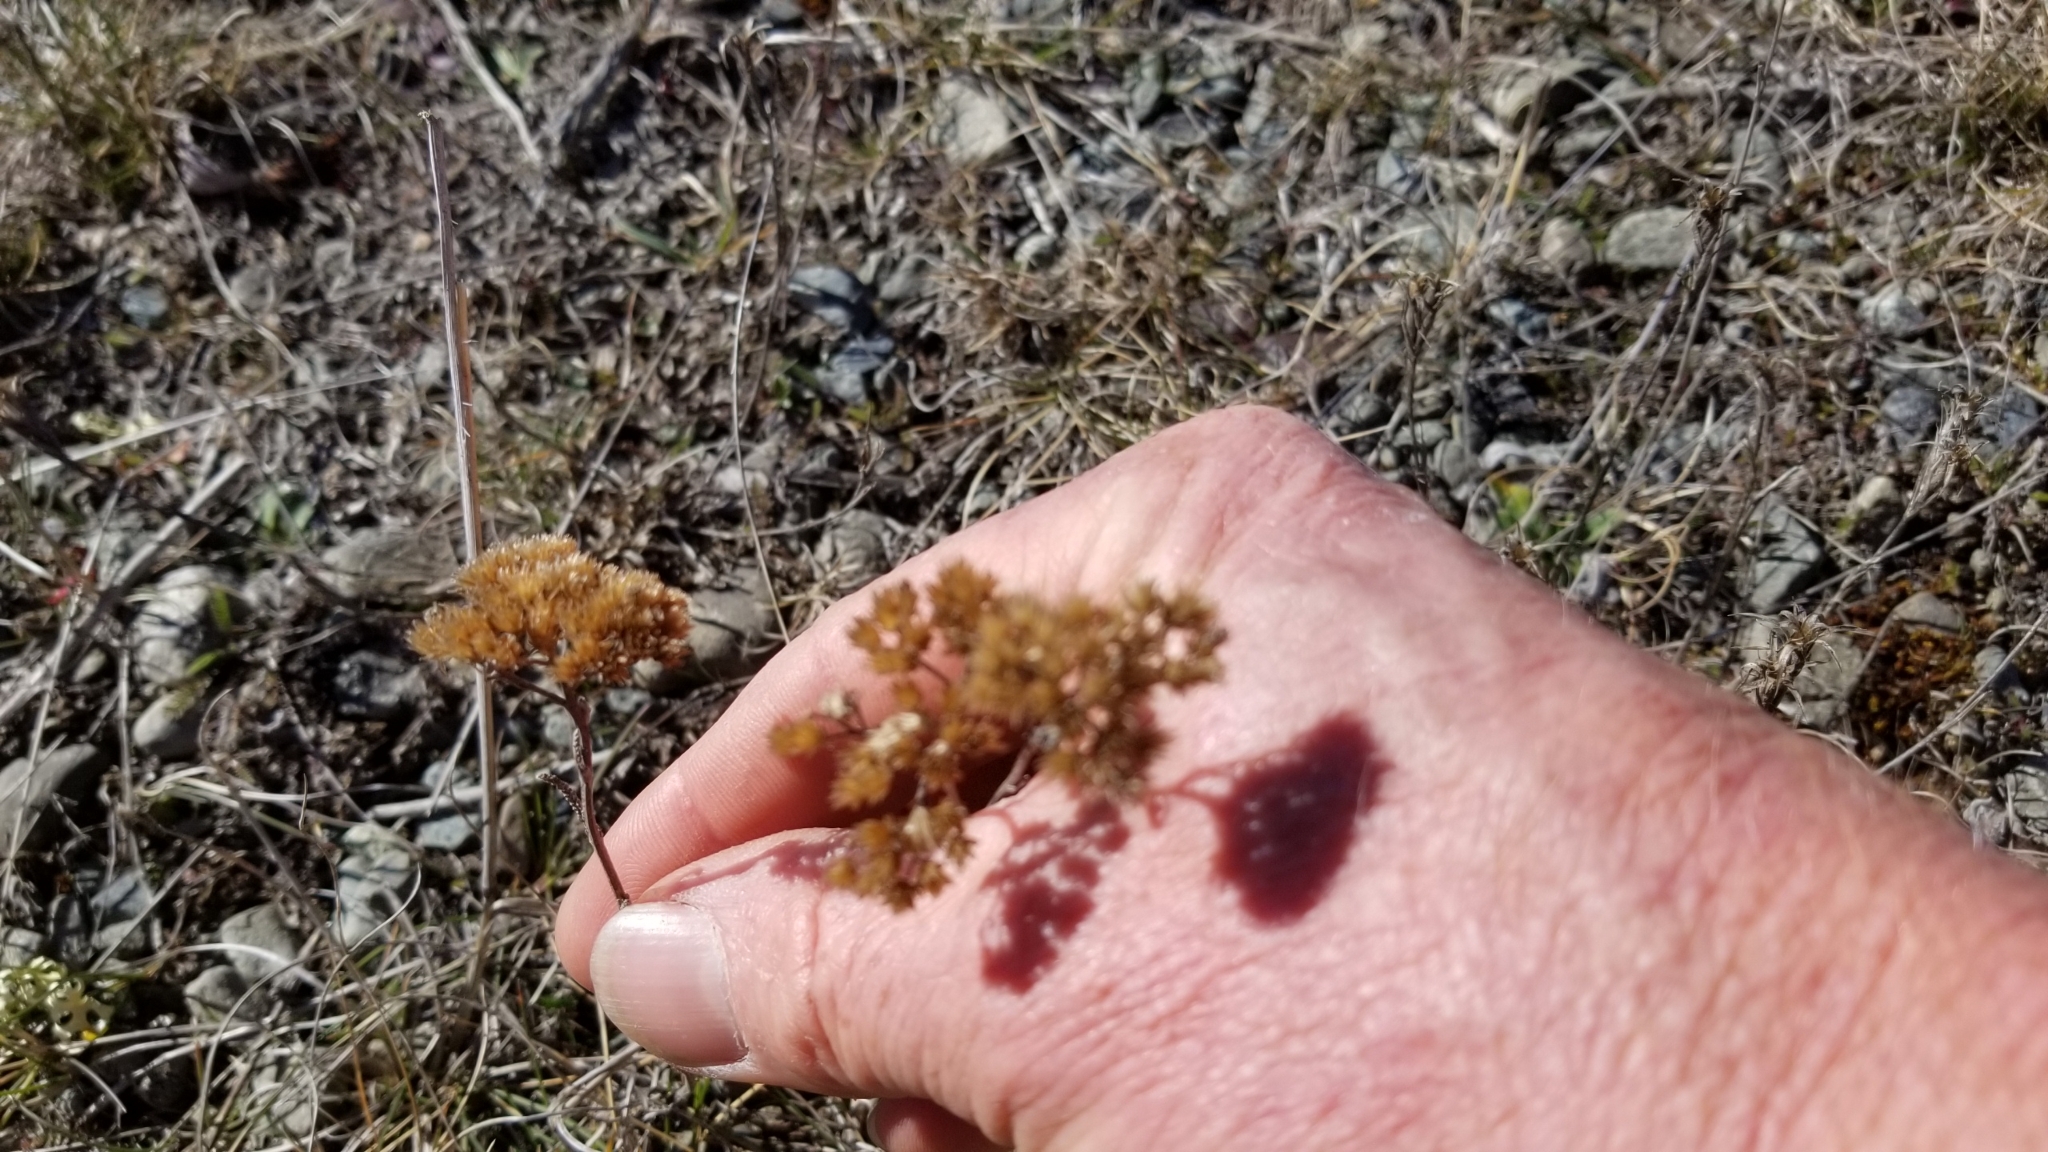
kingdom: Plantae
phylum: Tracheophyta
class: Magnoliopsida
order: Asterales
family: Asteraceae
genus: Achillea
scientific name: Achillea millefolium
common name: Yarrow
